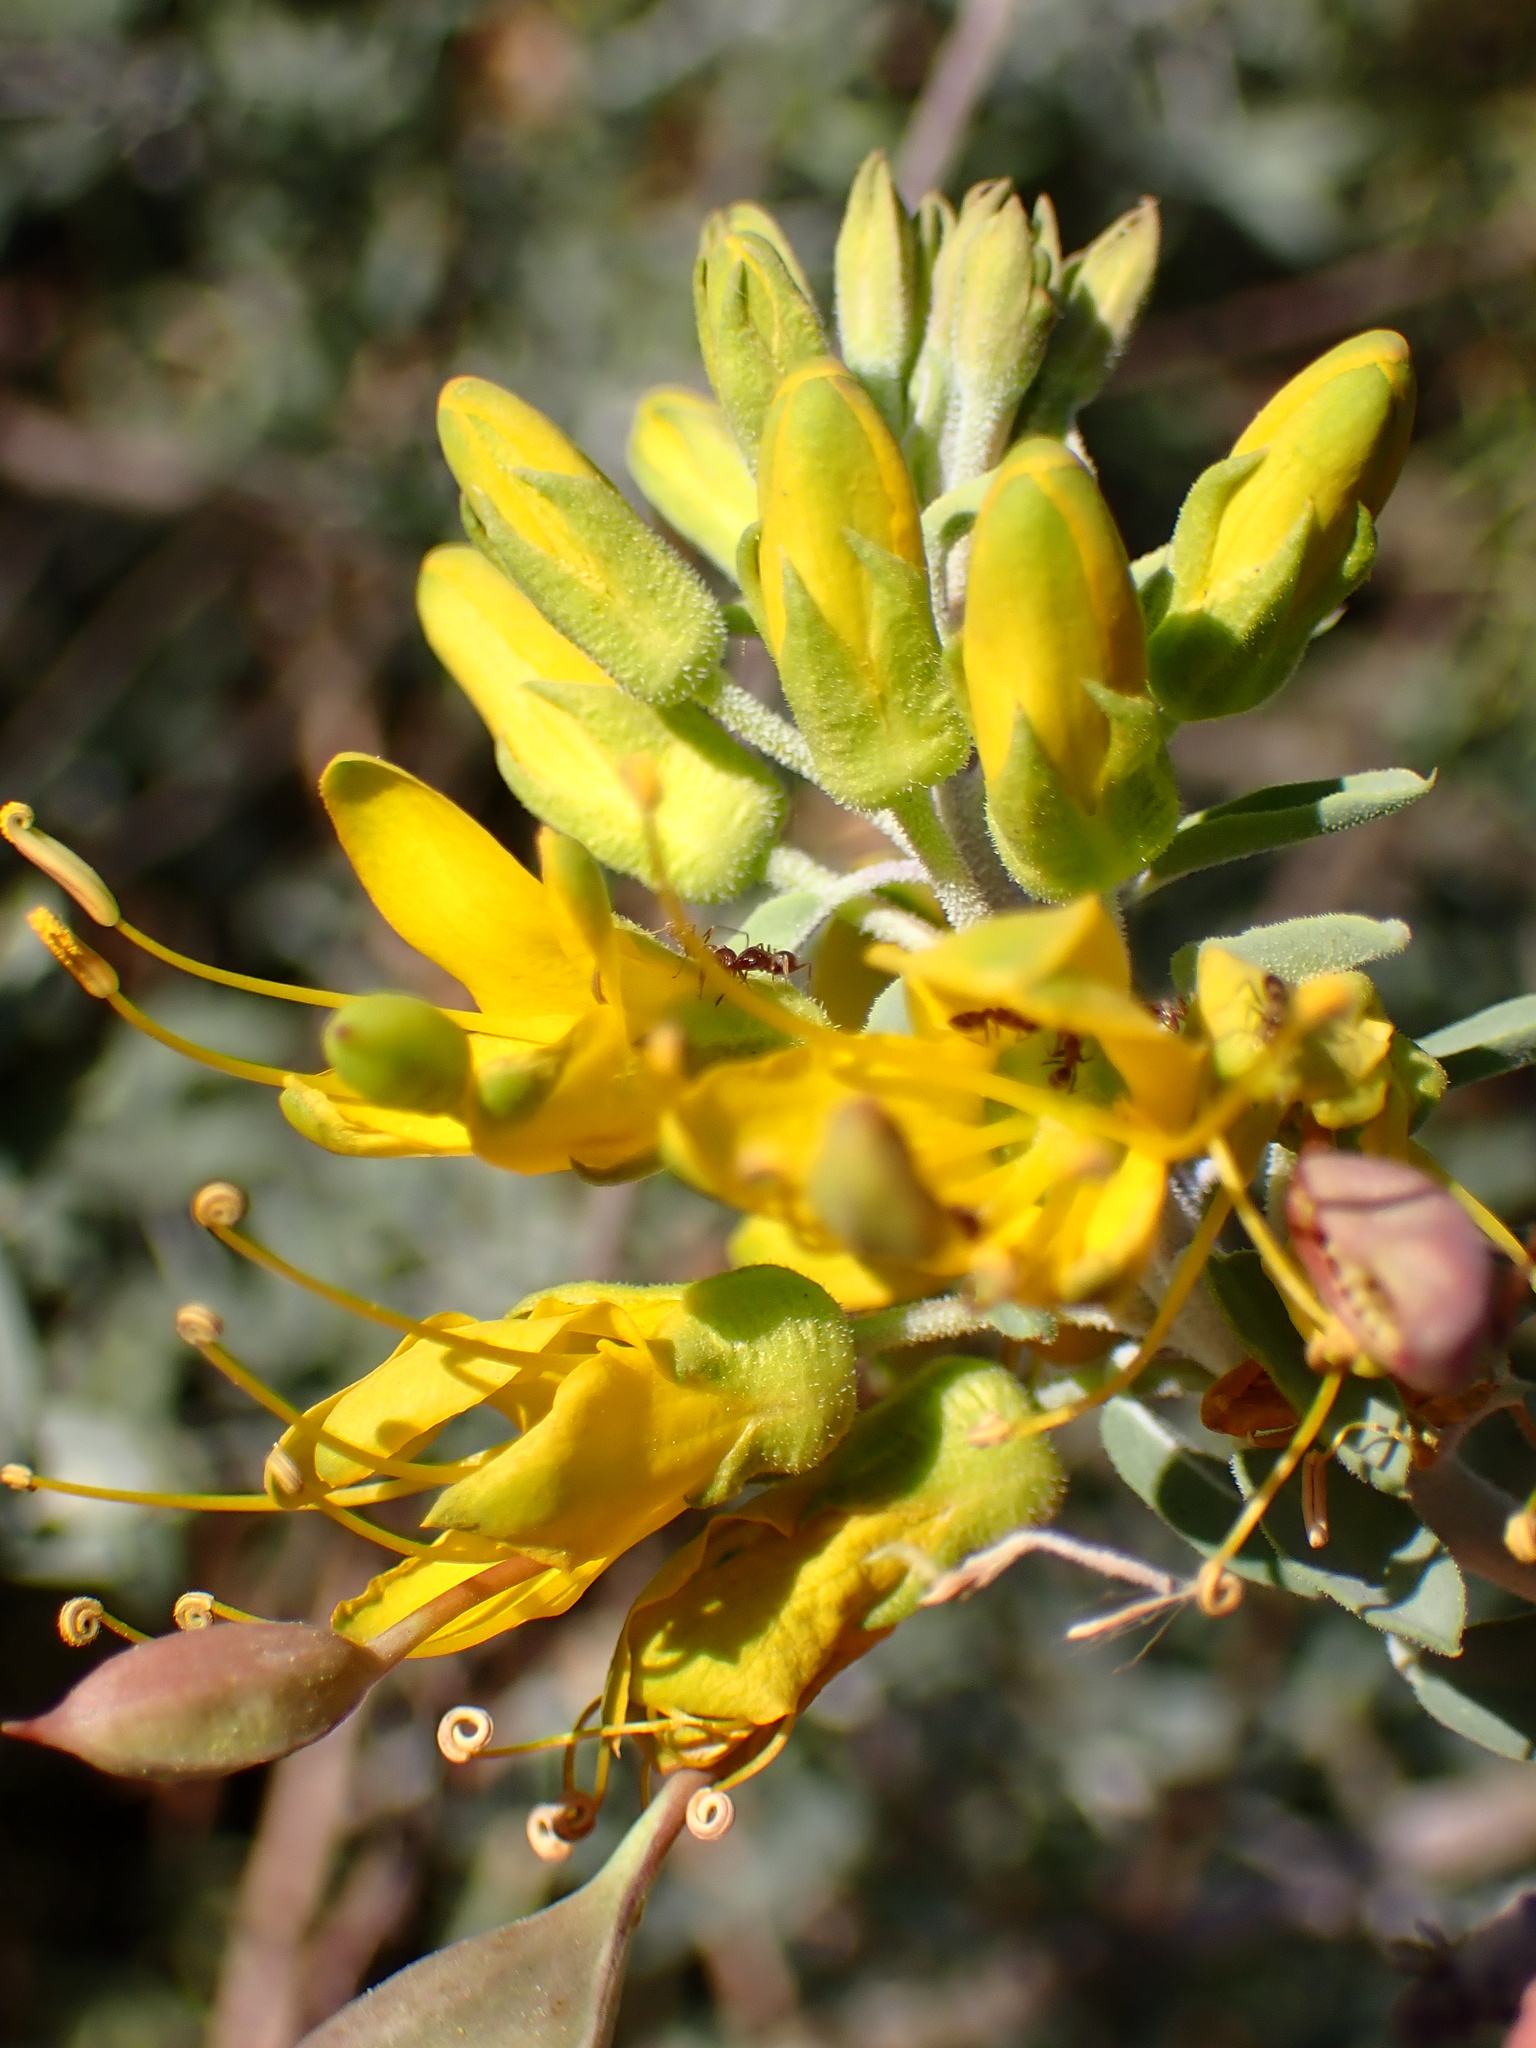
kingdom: Plantae
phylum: Tracheophyta
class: Magnoliopsida
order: Brassicales
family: Cleomaceae
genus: Cleomella
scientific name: Cleomella arborea
